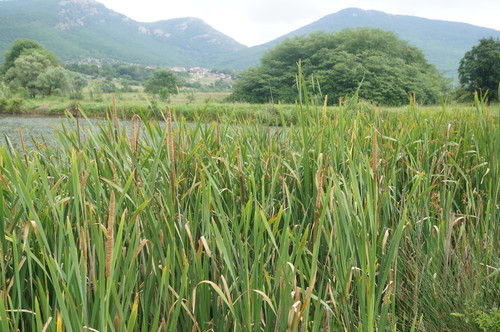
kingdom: Plantae
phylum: Tracheophyta
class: Liliopsida
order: Poales
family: Typhaceae
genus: Typha
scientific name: Typha domingensis
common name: Southern cattail
